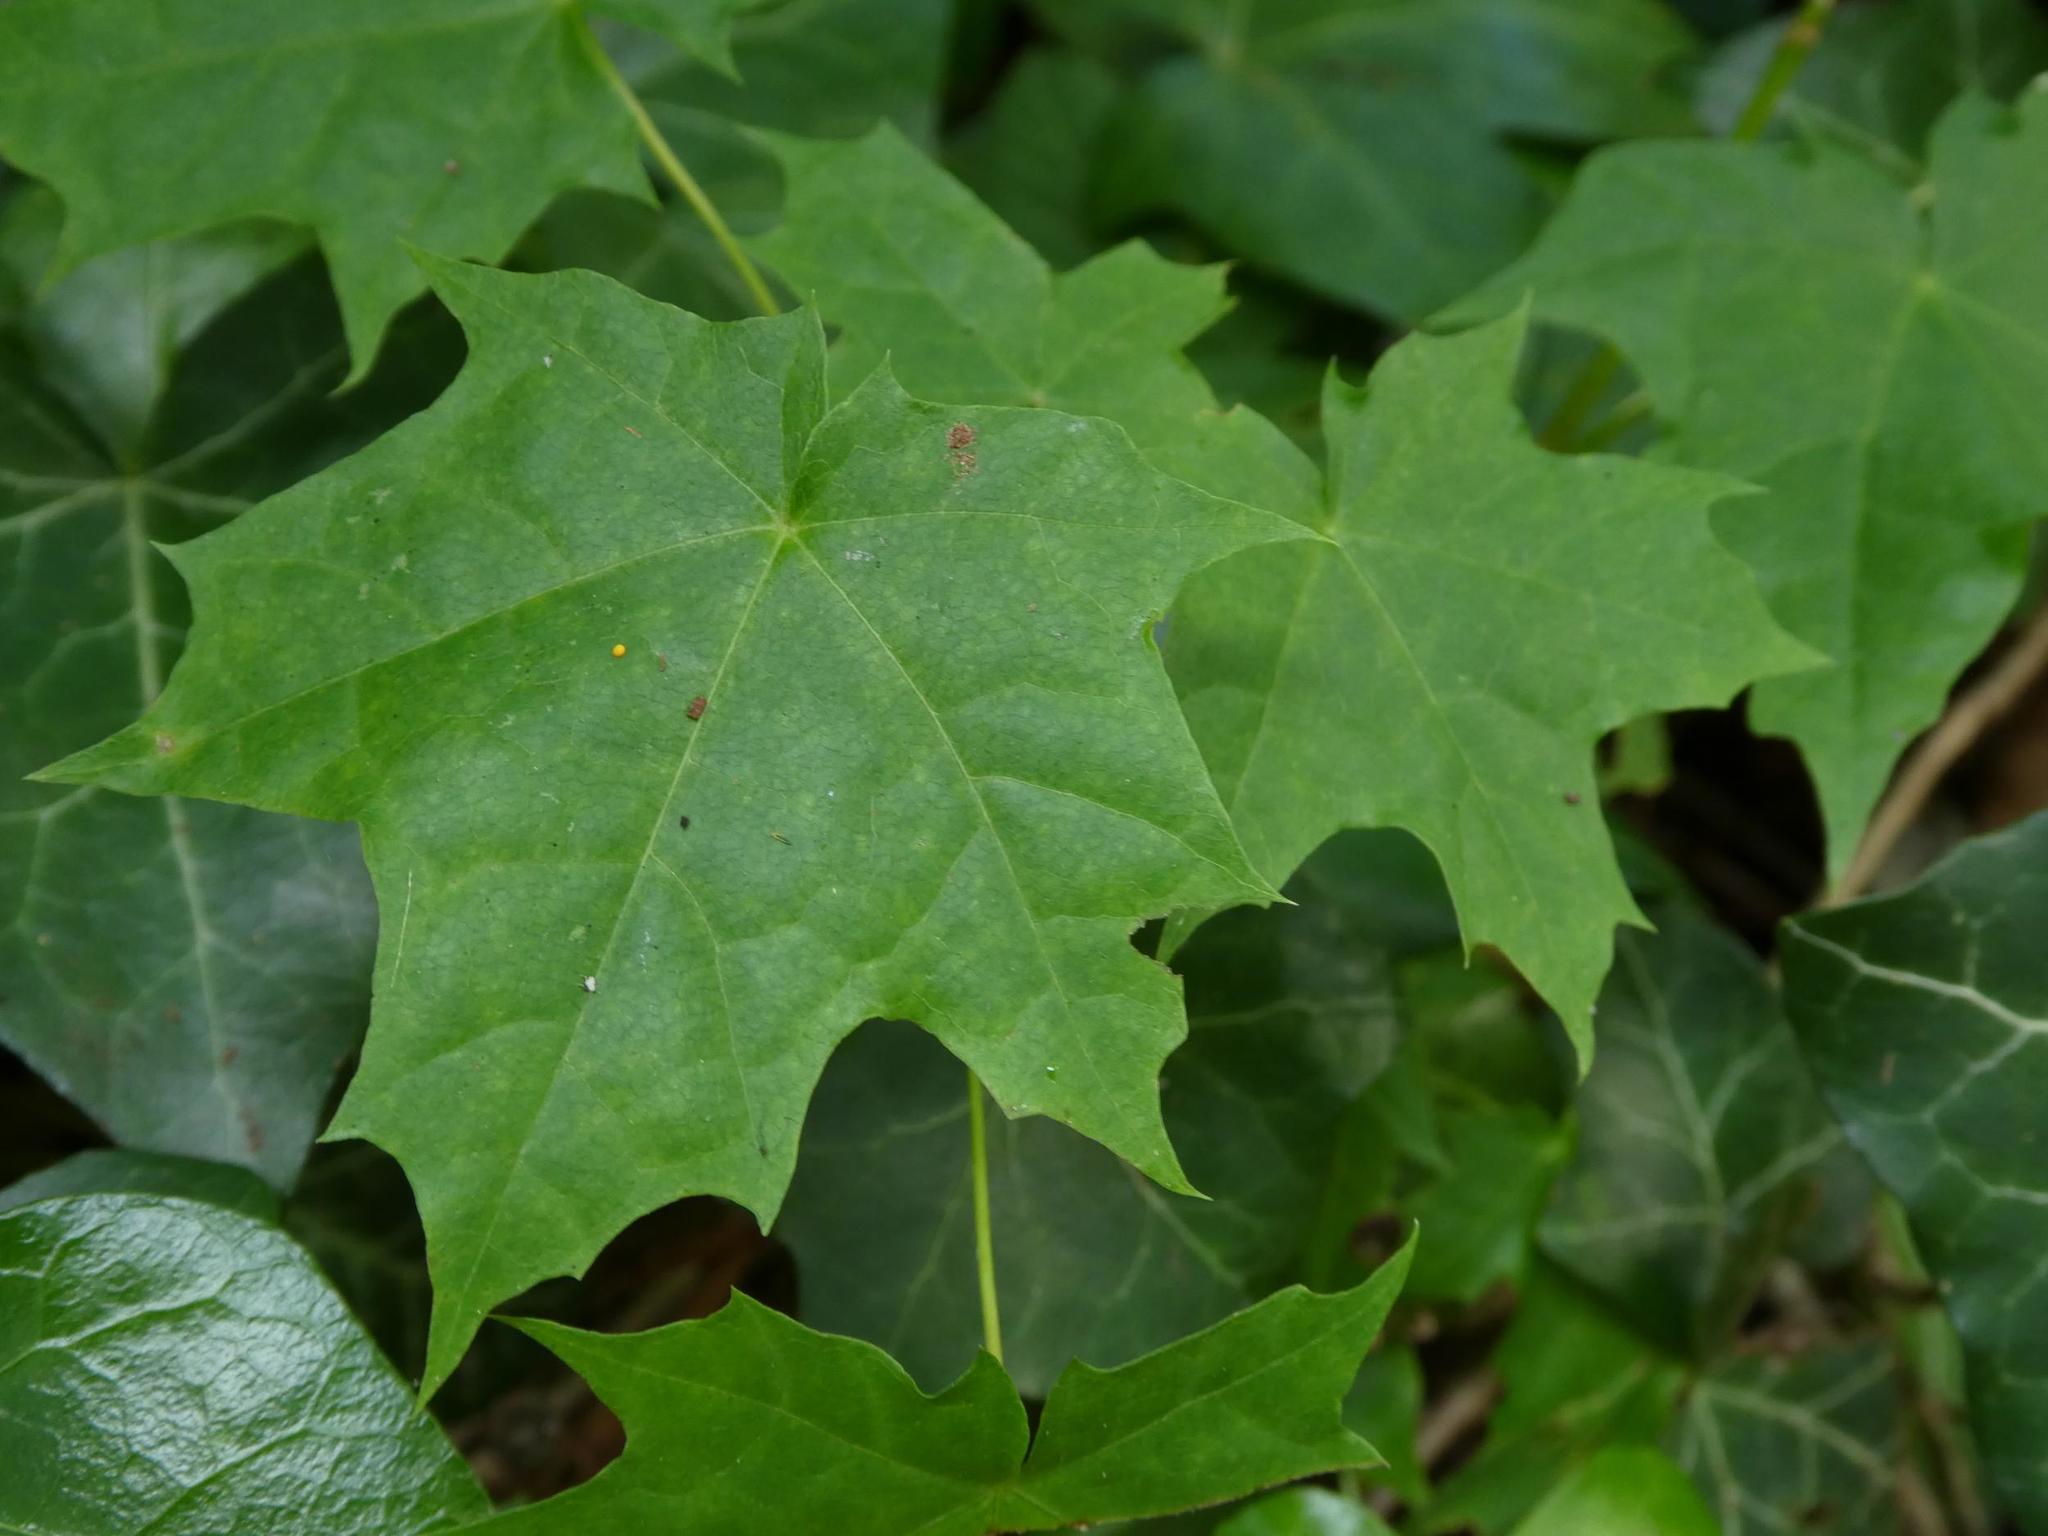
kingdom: Plantae
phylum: Tracheophyta
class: Magnoliopsida
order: Sapindales
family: Sapindaceae
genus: Acer
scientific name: Acer platanoides
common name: Norway maple
